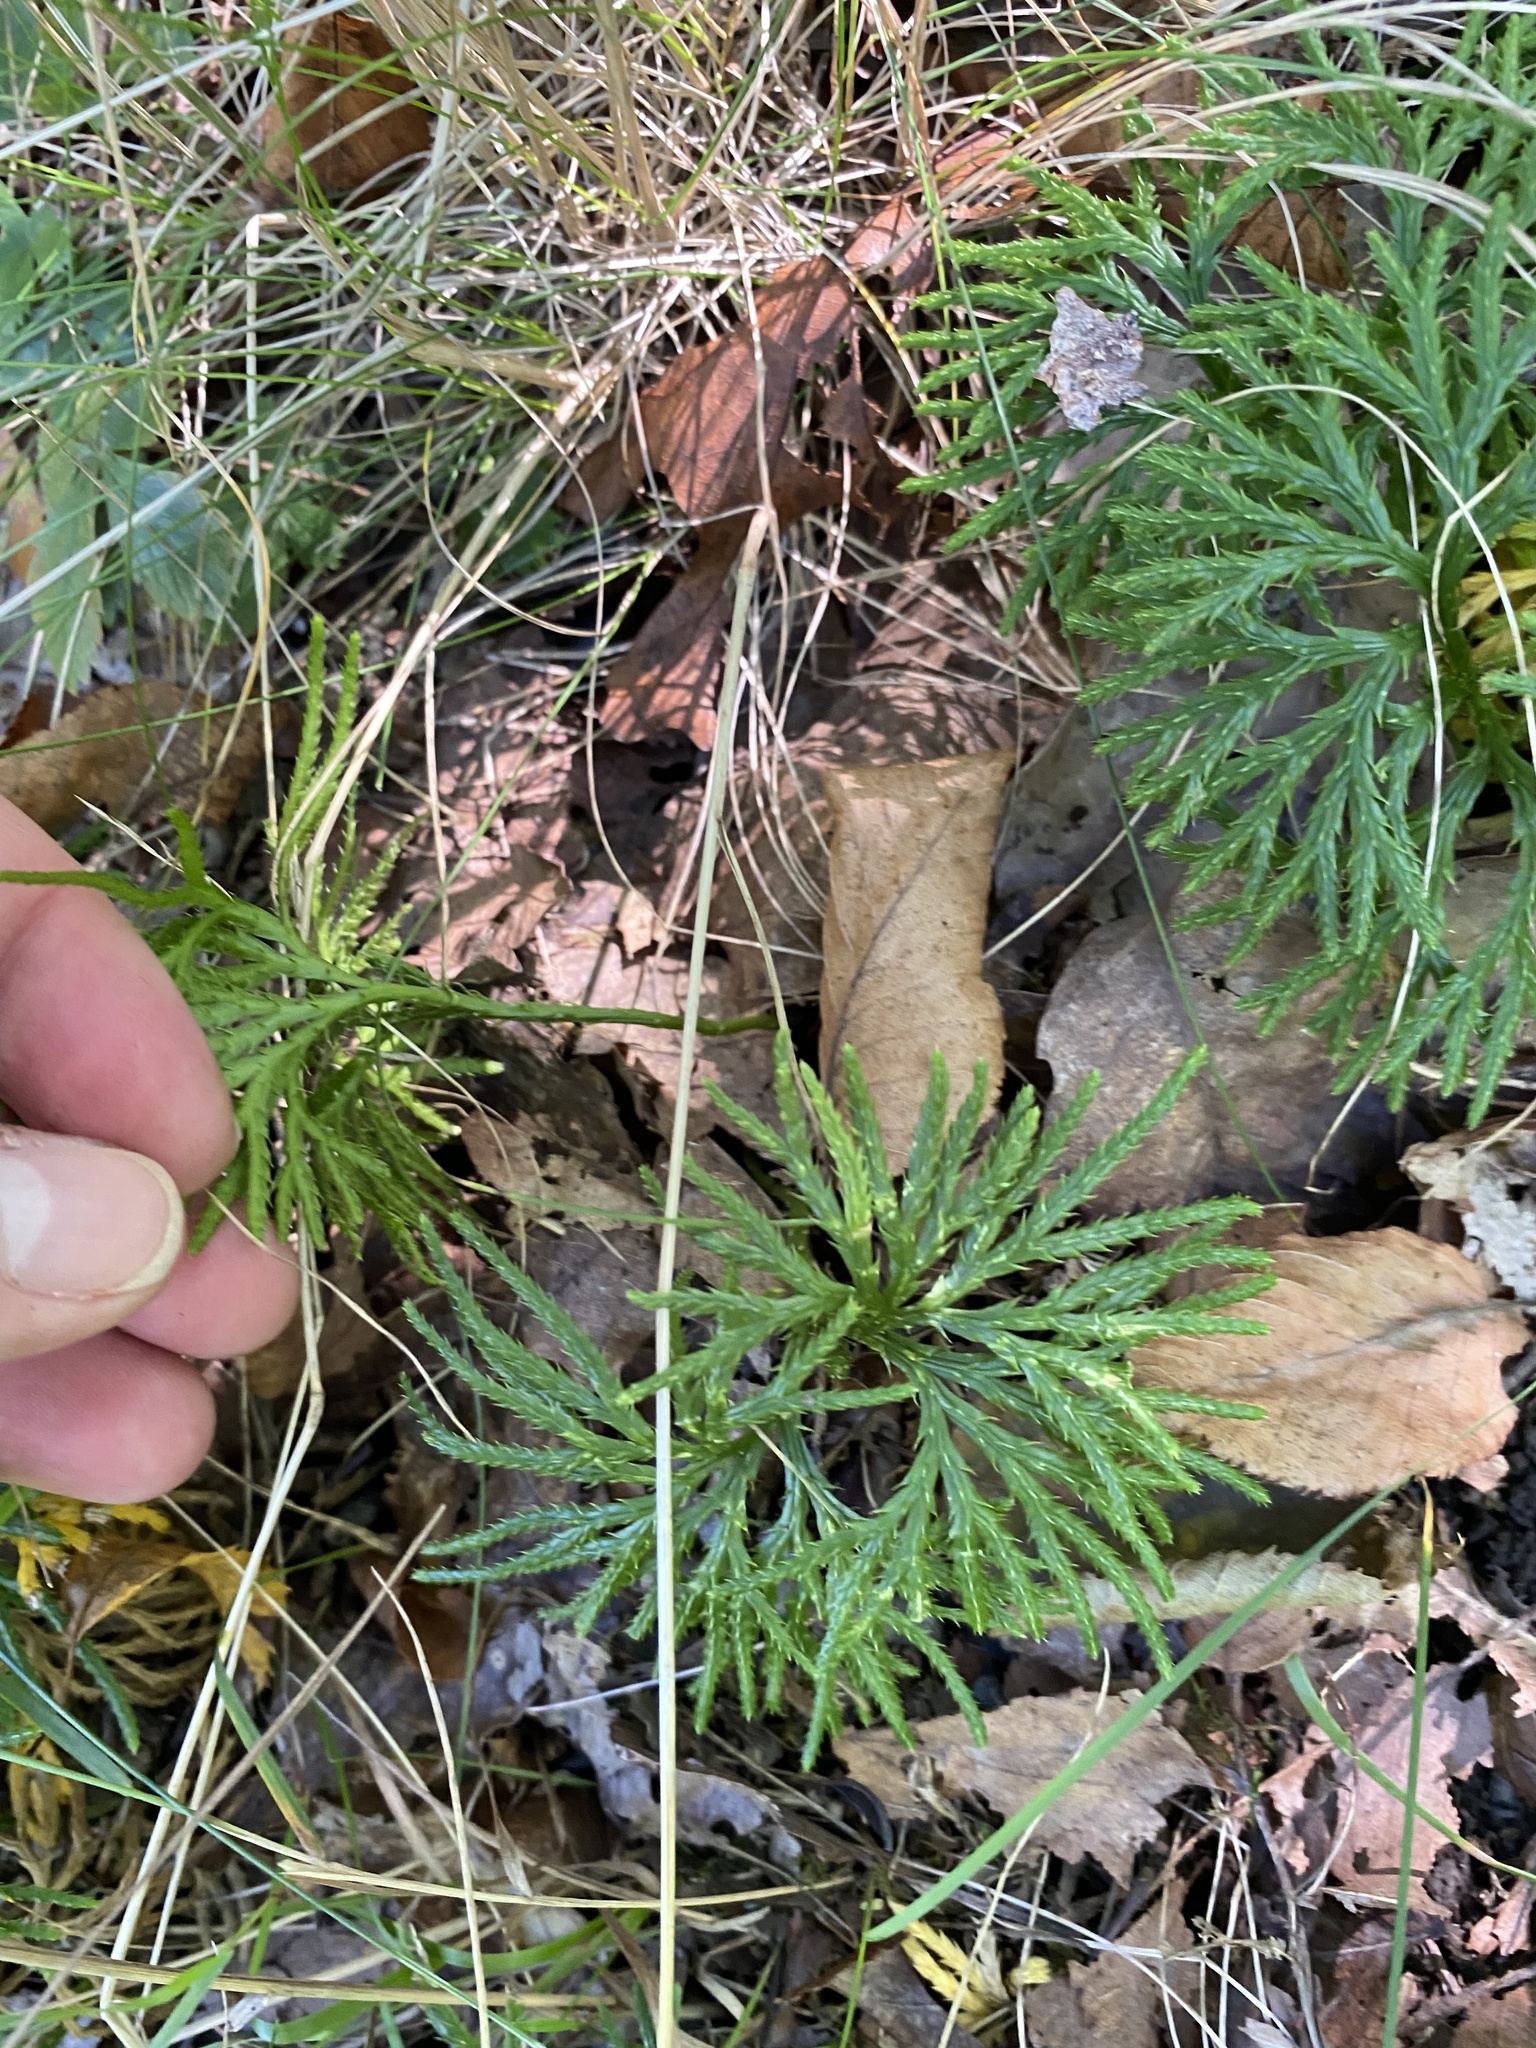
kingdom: Plantae
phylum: Tracheophyta
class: Lycopodiopsida
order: Lycopodiales
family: Lycopodiaceae
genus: Diphasiastrum
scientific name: Diphasiastrum digitatum
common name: Southern running-pine
